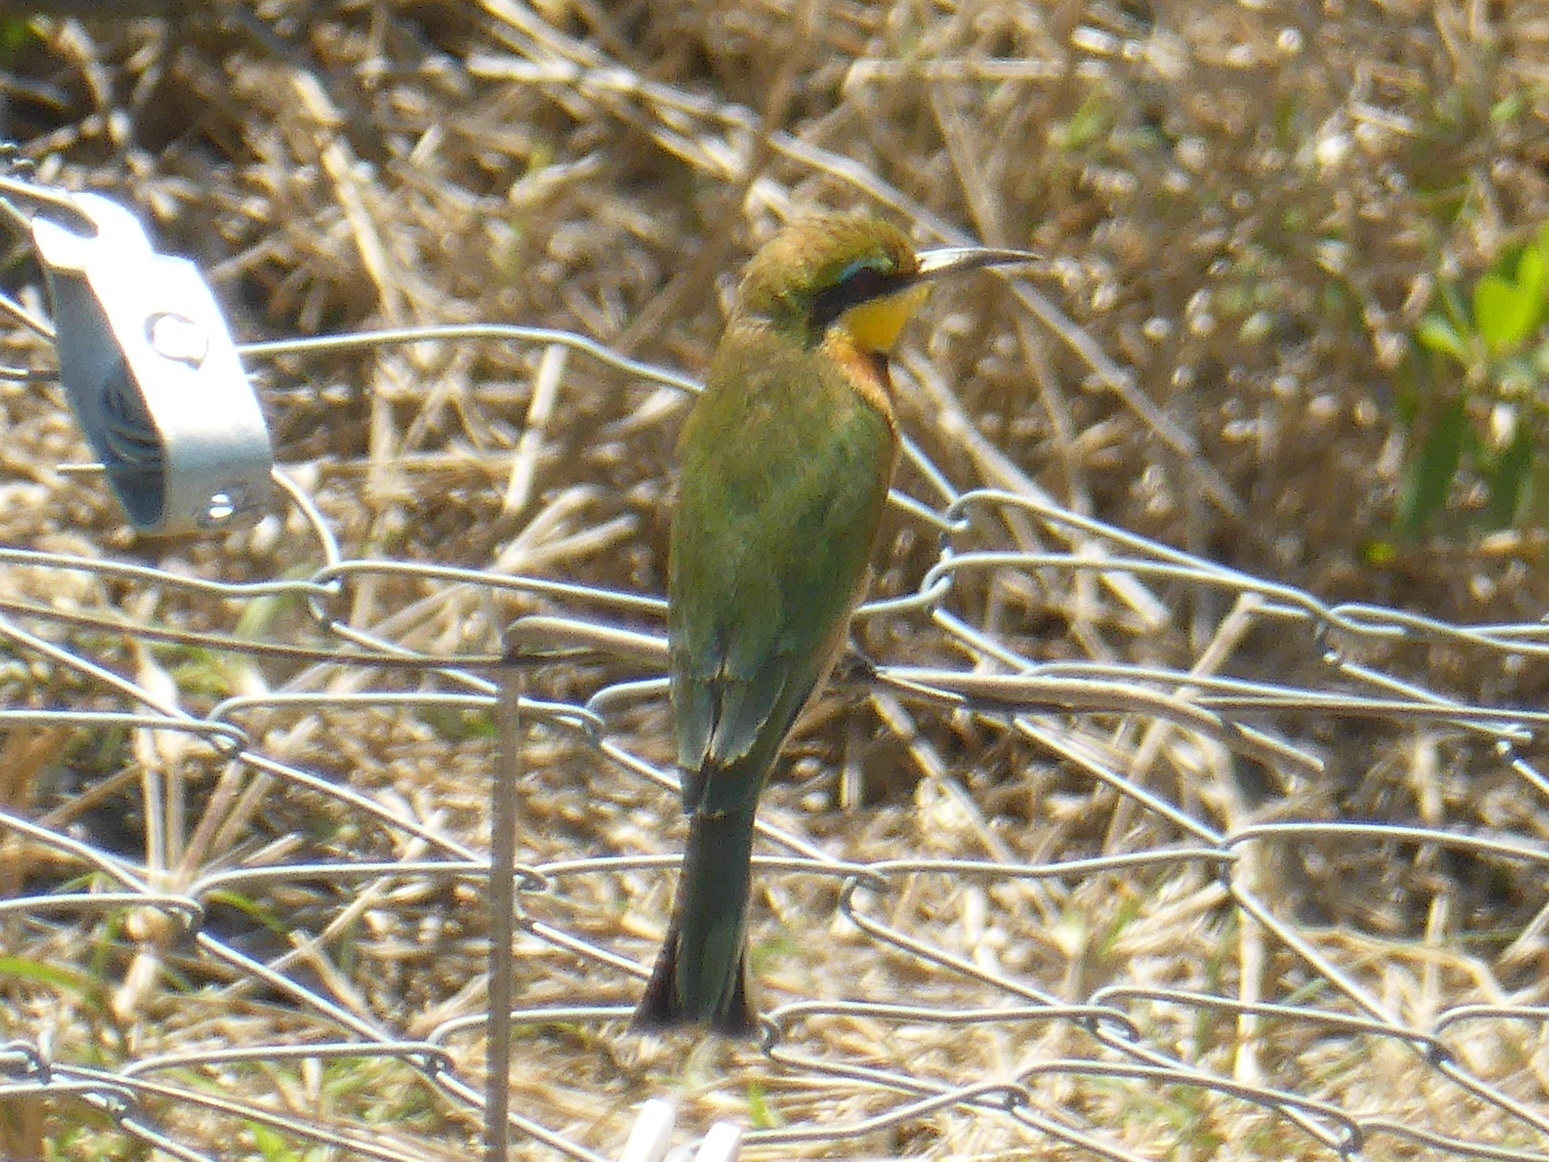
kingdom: Animalia
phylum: Chordata
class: Aves
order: Coraciiformes
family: Meropidae
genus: Merops
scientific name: Merops pusillus
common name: Little bee-eater
